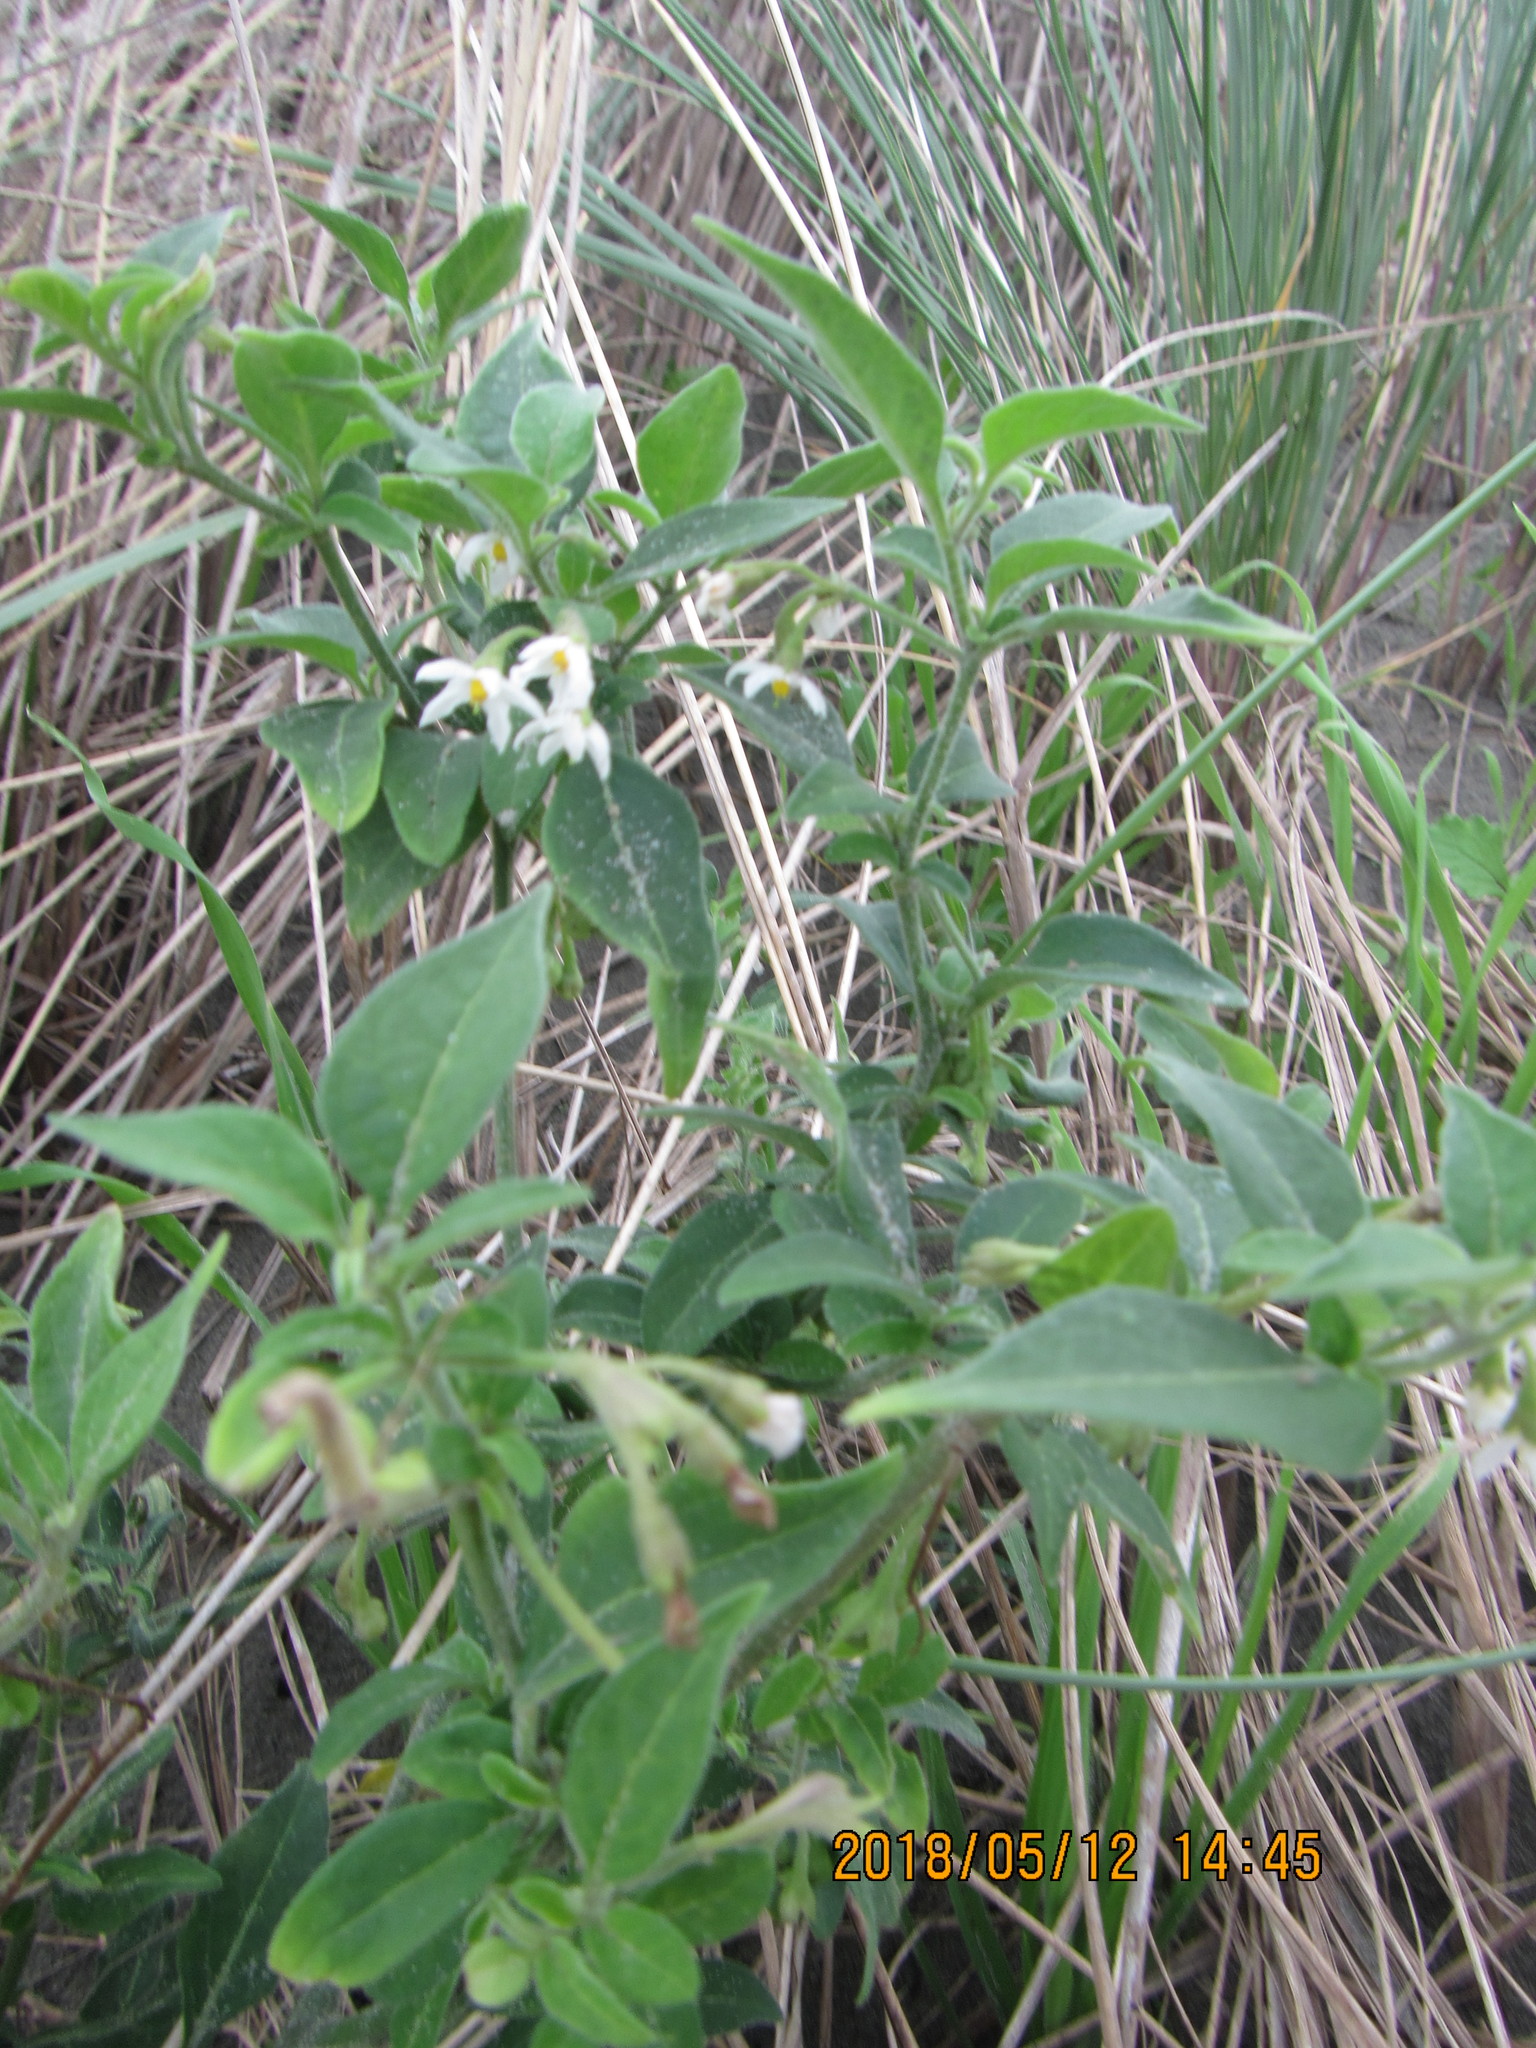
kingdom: Plantae
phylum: Tracheophyta
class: Magnoliopsida
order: Solanales
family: Solanaceae
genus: Solanum
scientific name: Solanum chenopodioides
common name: Tall nightshade
